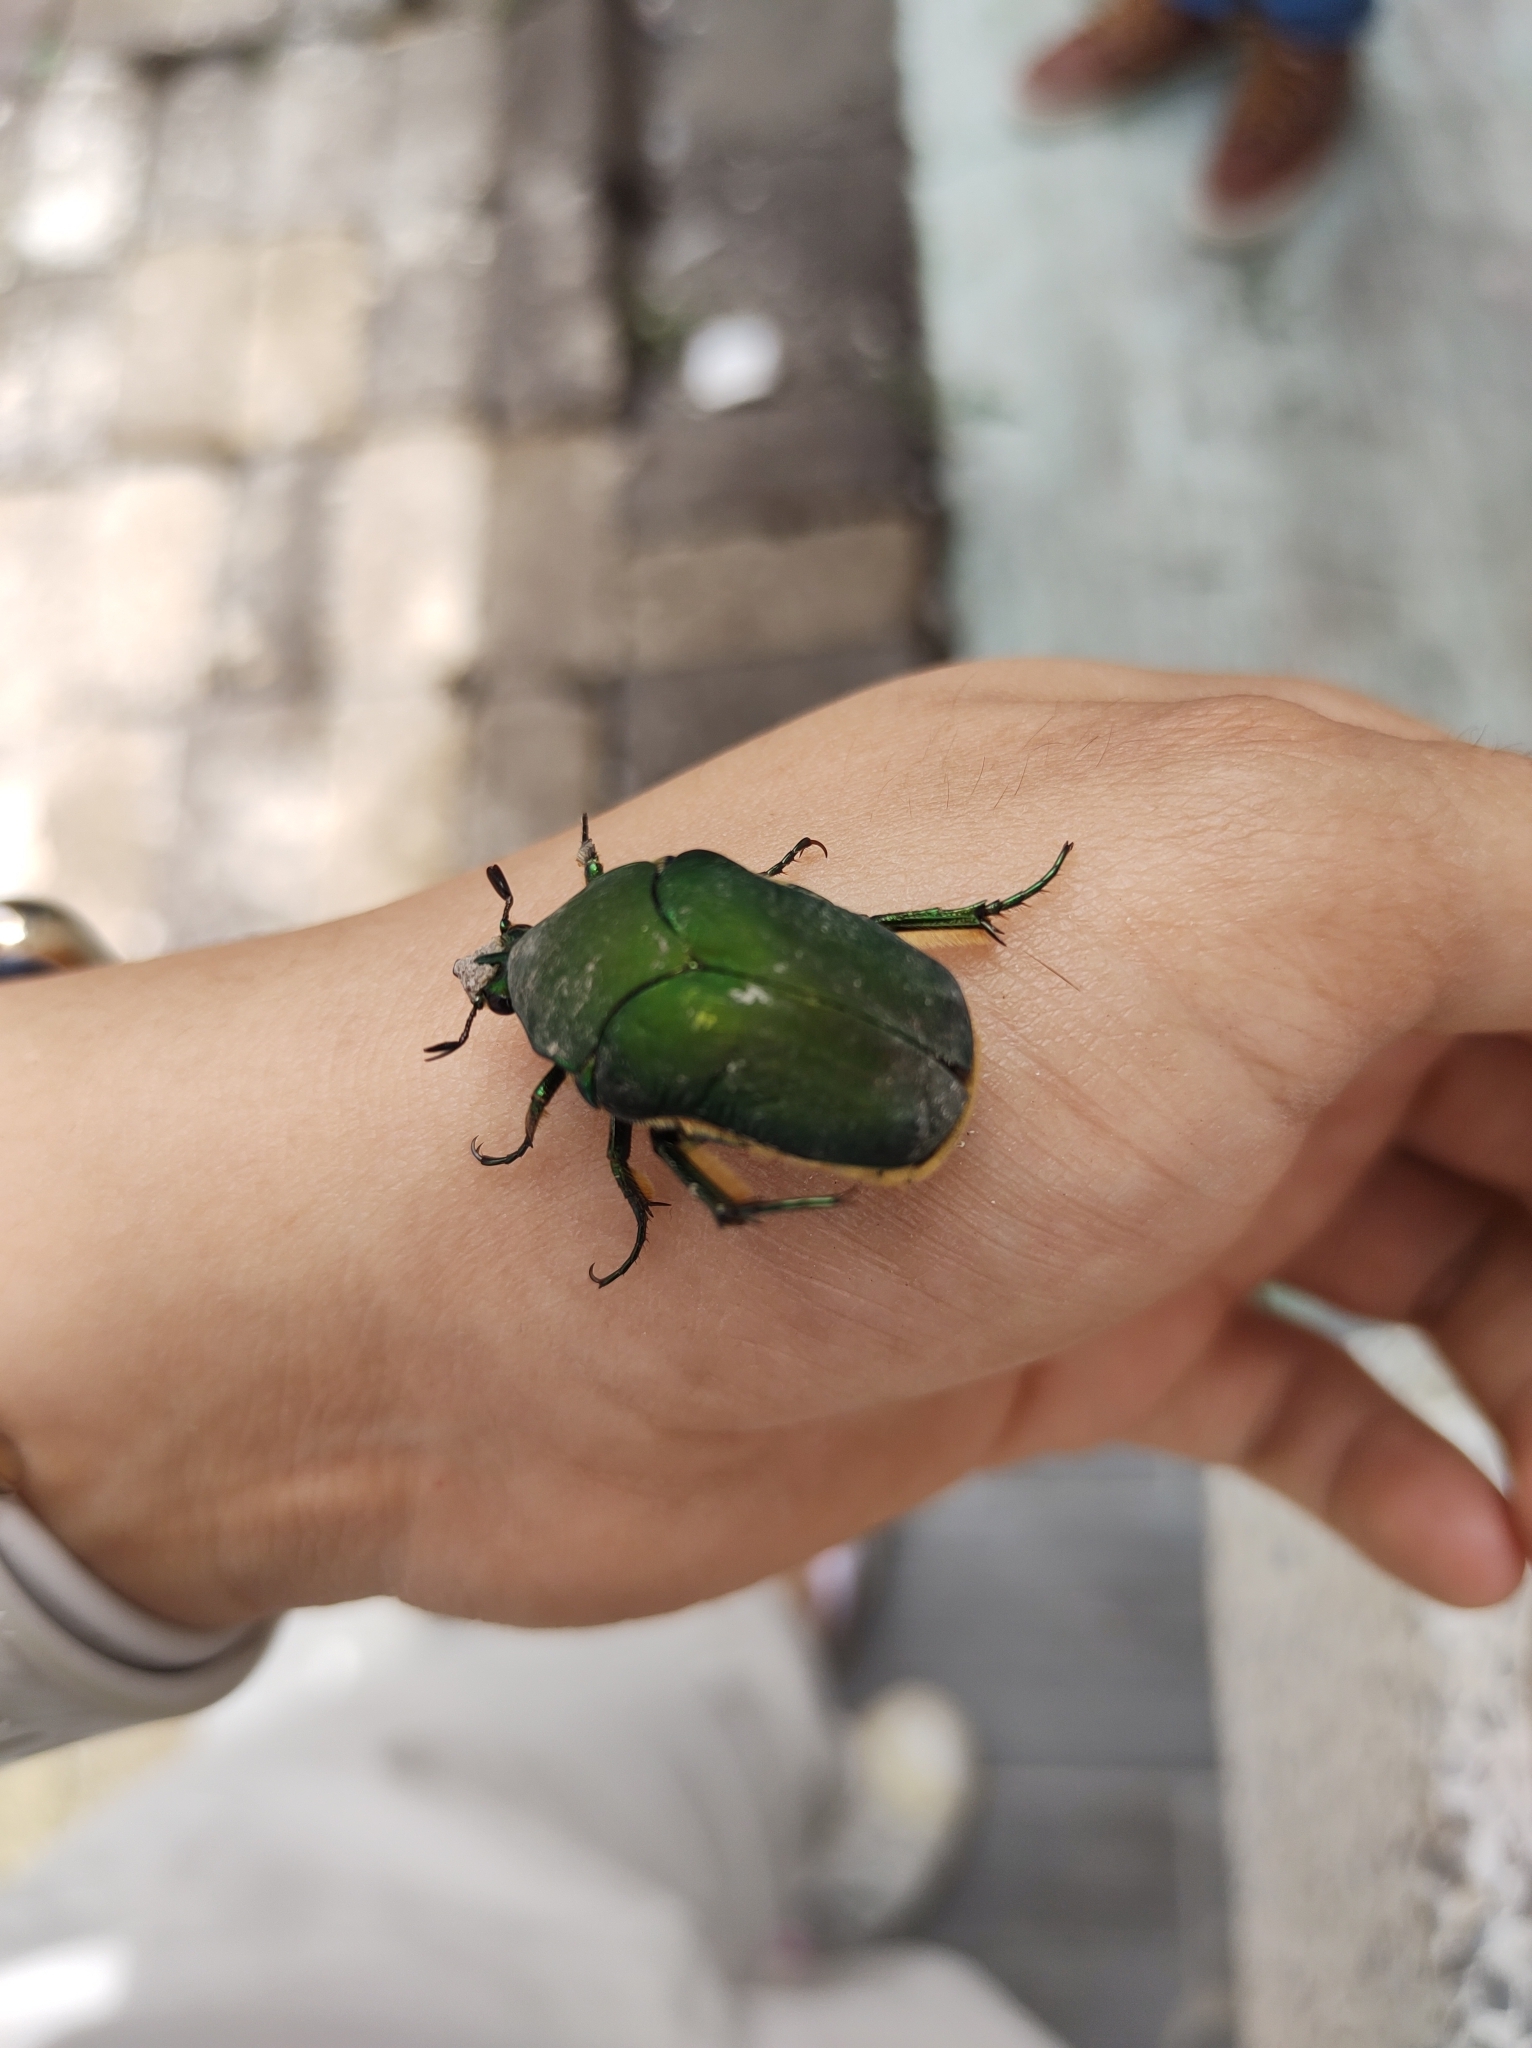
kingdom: Animalia
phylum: Arthropoda
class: Insecta
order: Coleoptera
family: Scarabaeidae
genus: Cotinis
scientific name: Cotinis mutabilis
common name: Figeater beetle
